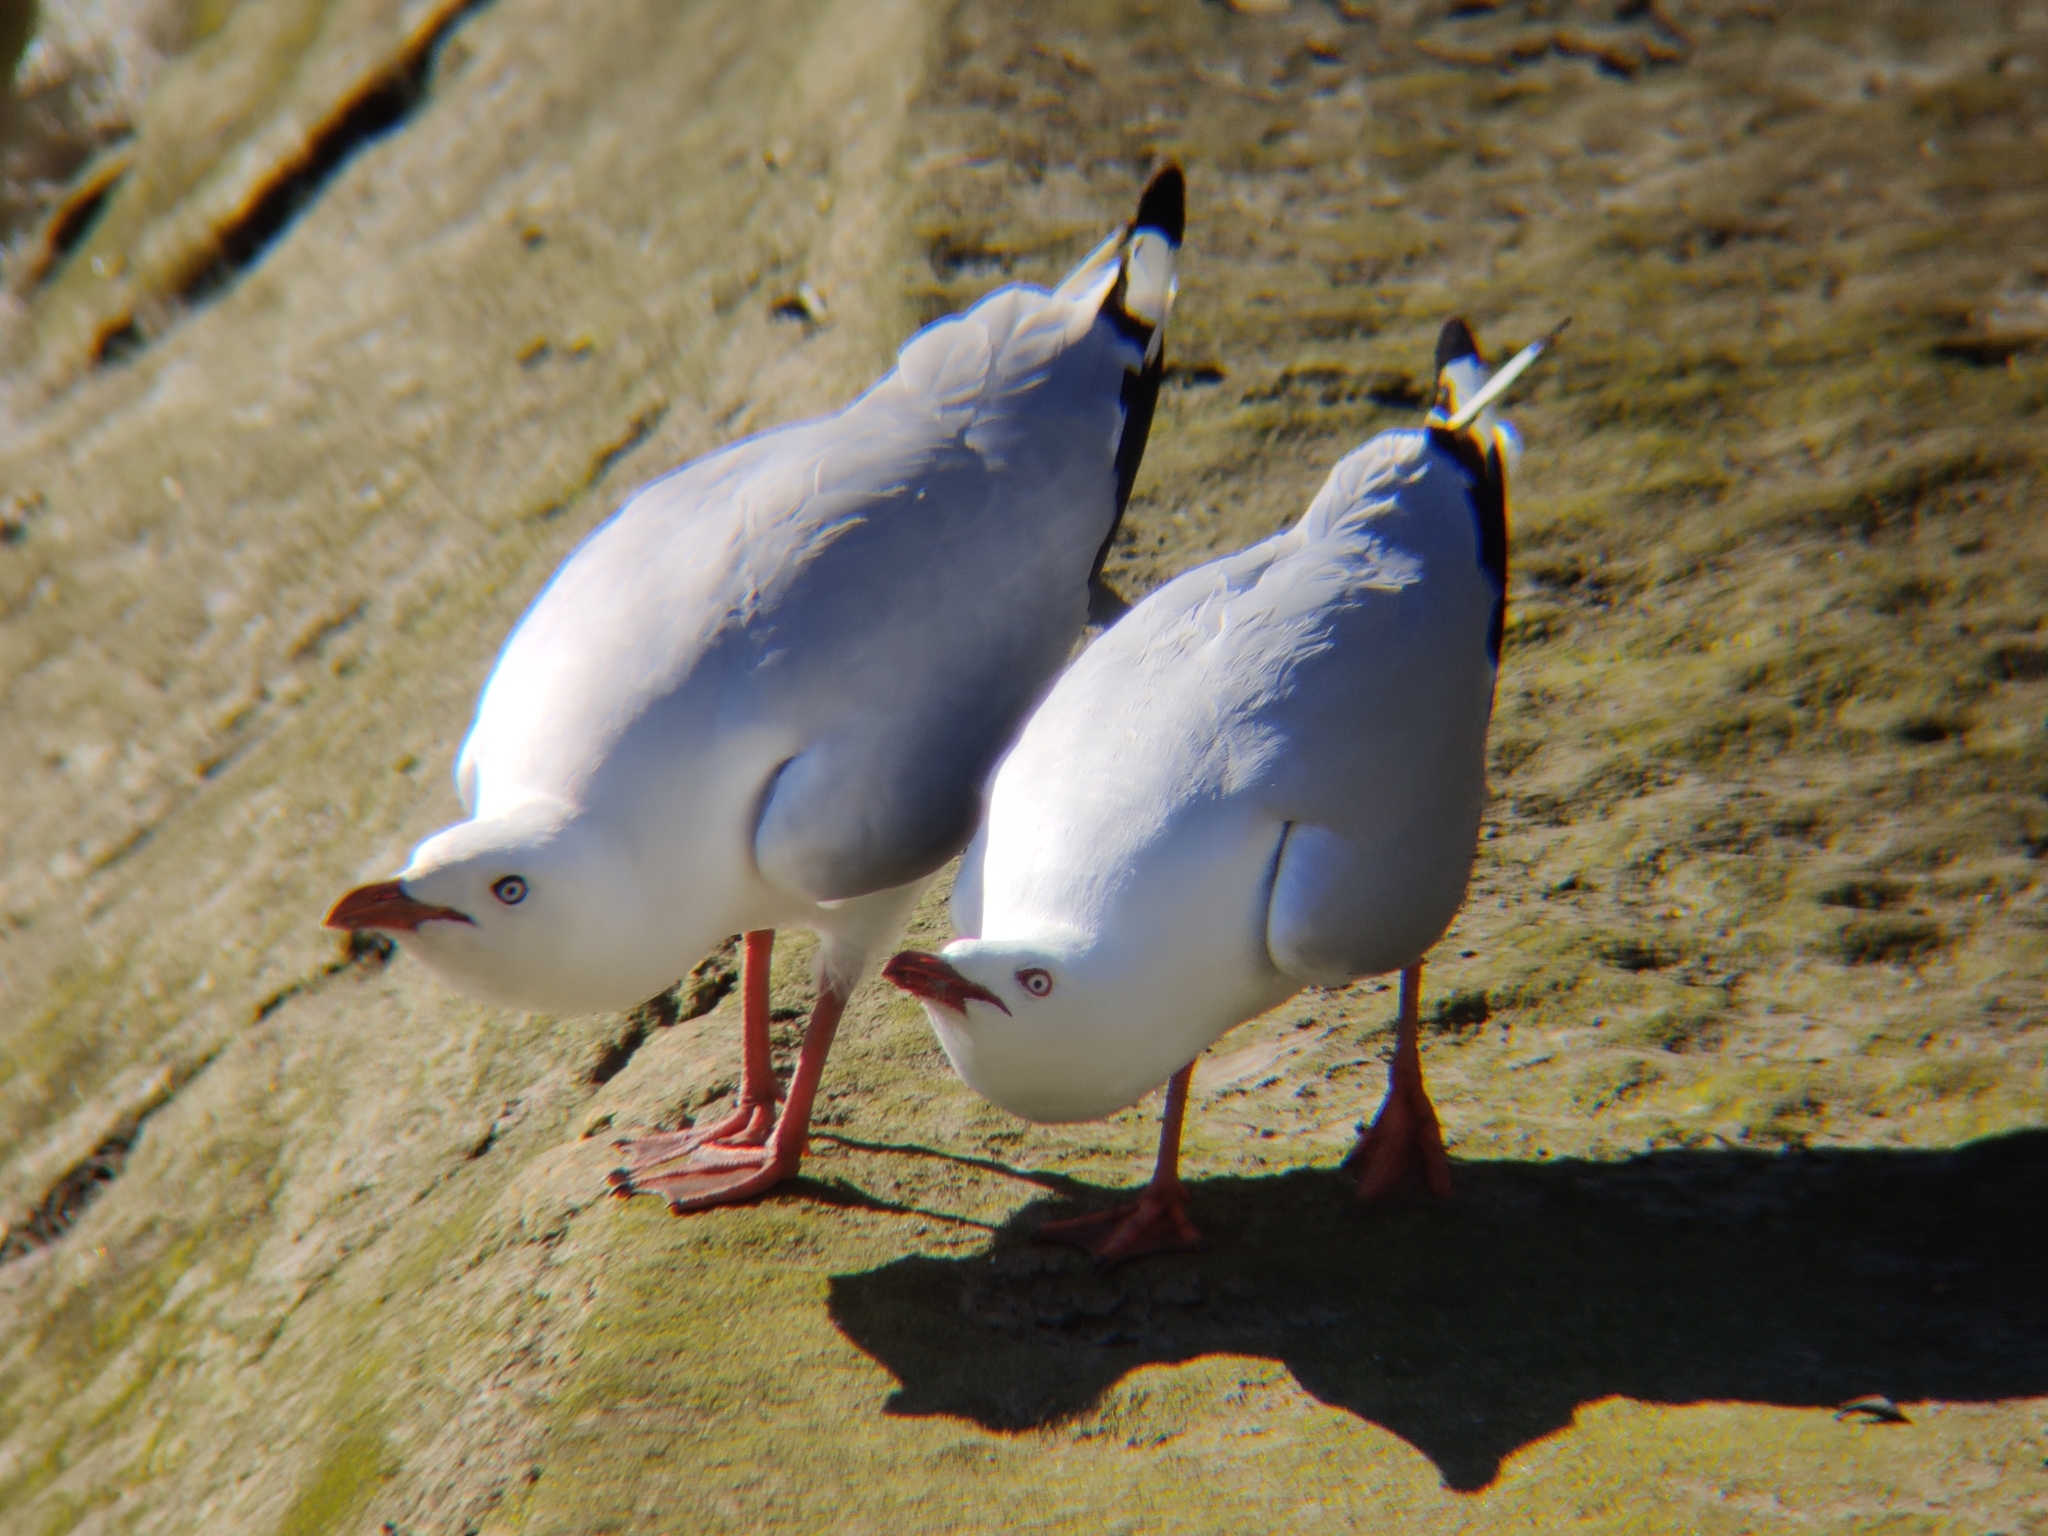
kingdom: Animalia
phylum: Chordata
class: Aves
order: Charadriiformes
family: Laridae
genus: Chroicocephalus
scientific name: Chroicocephalus novaehollandiae
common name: Silver gull
